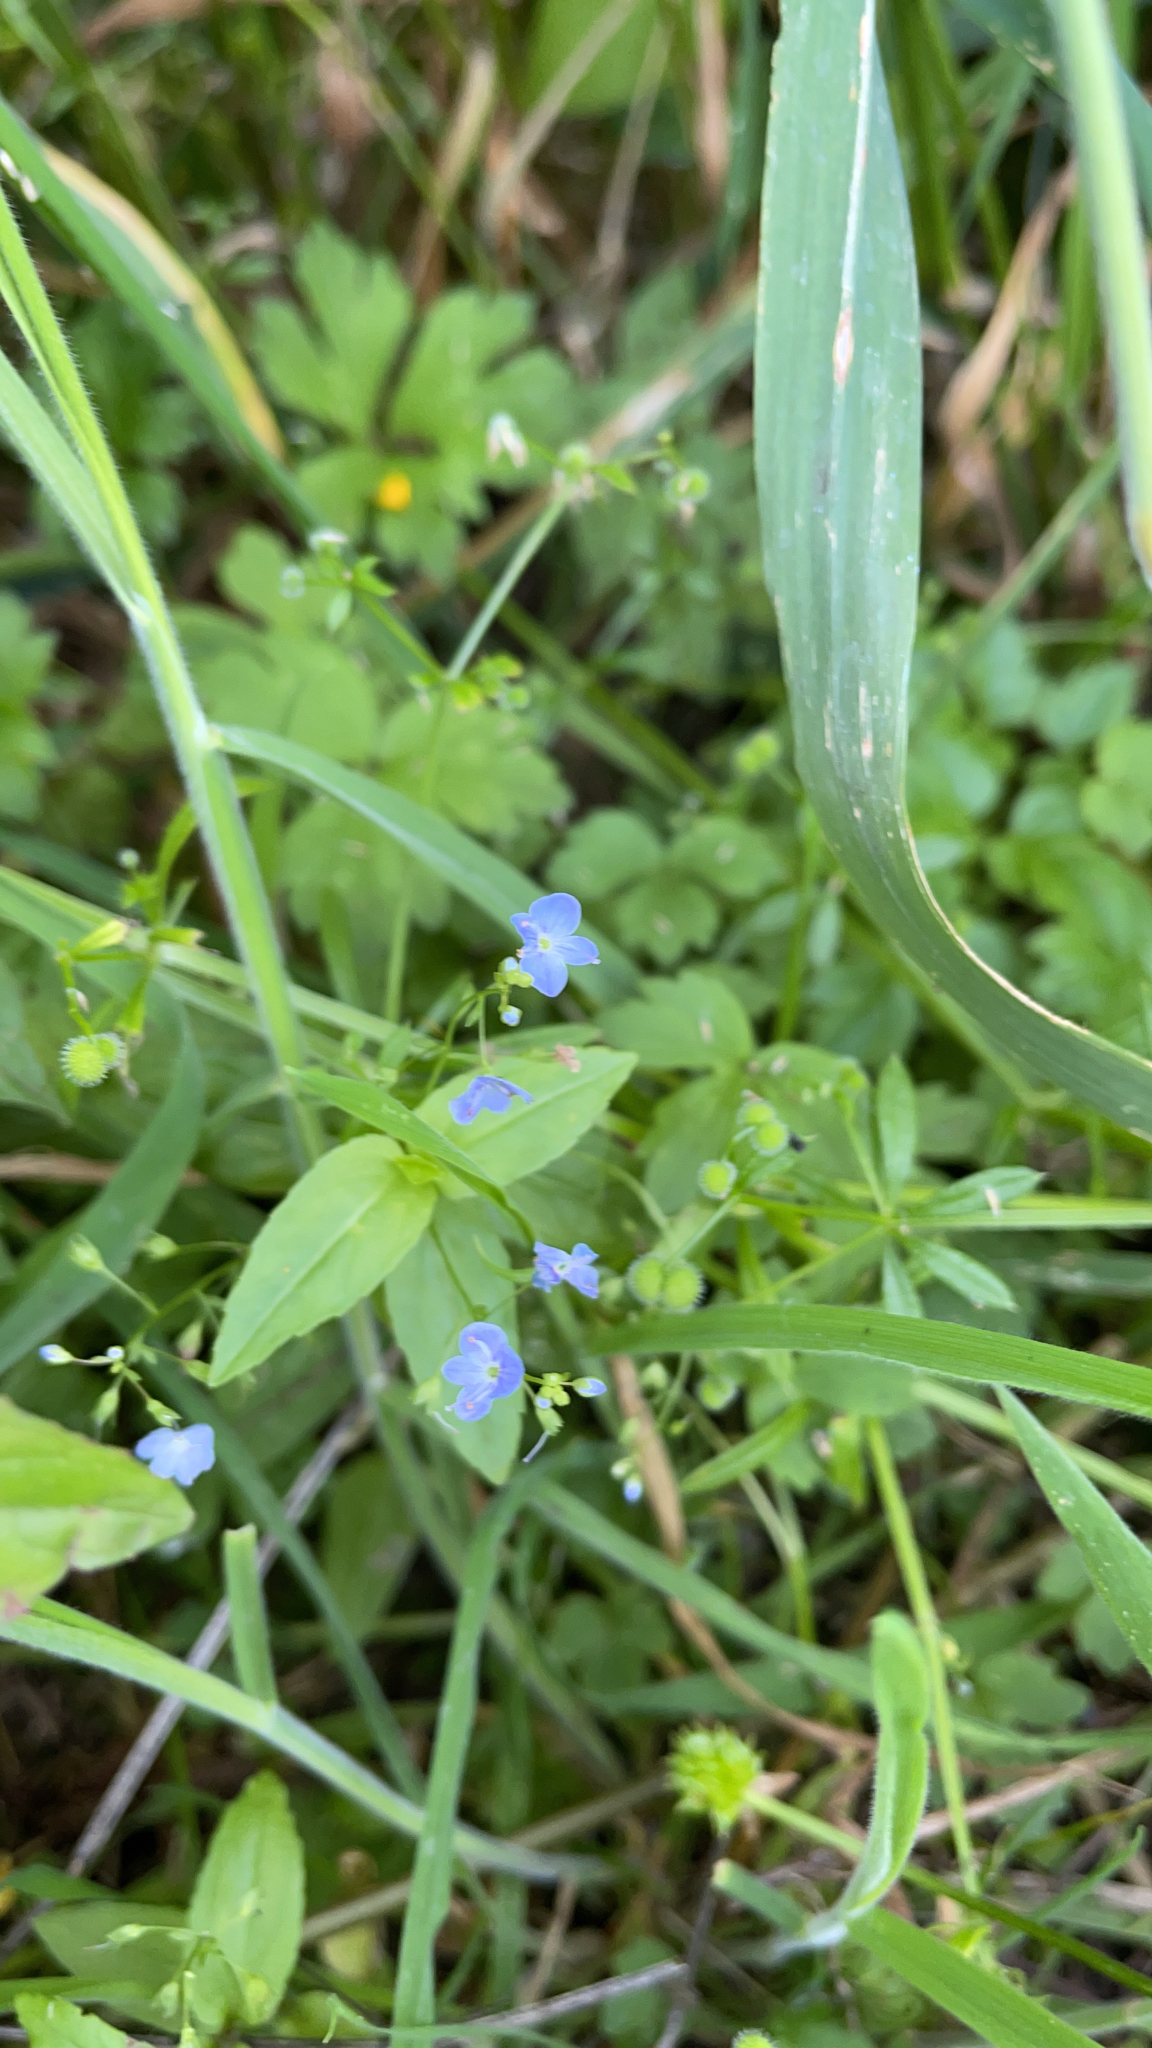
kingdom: Plantae
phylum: Tracheophyta
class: Magnoliopsida
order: Lamiales
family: Plantaginaceae
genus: Veronica
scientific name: Veronica americana
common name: American brooklime
